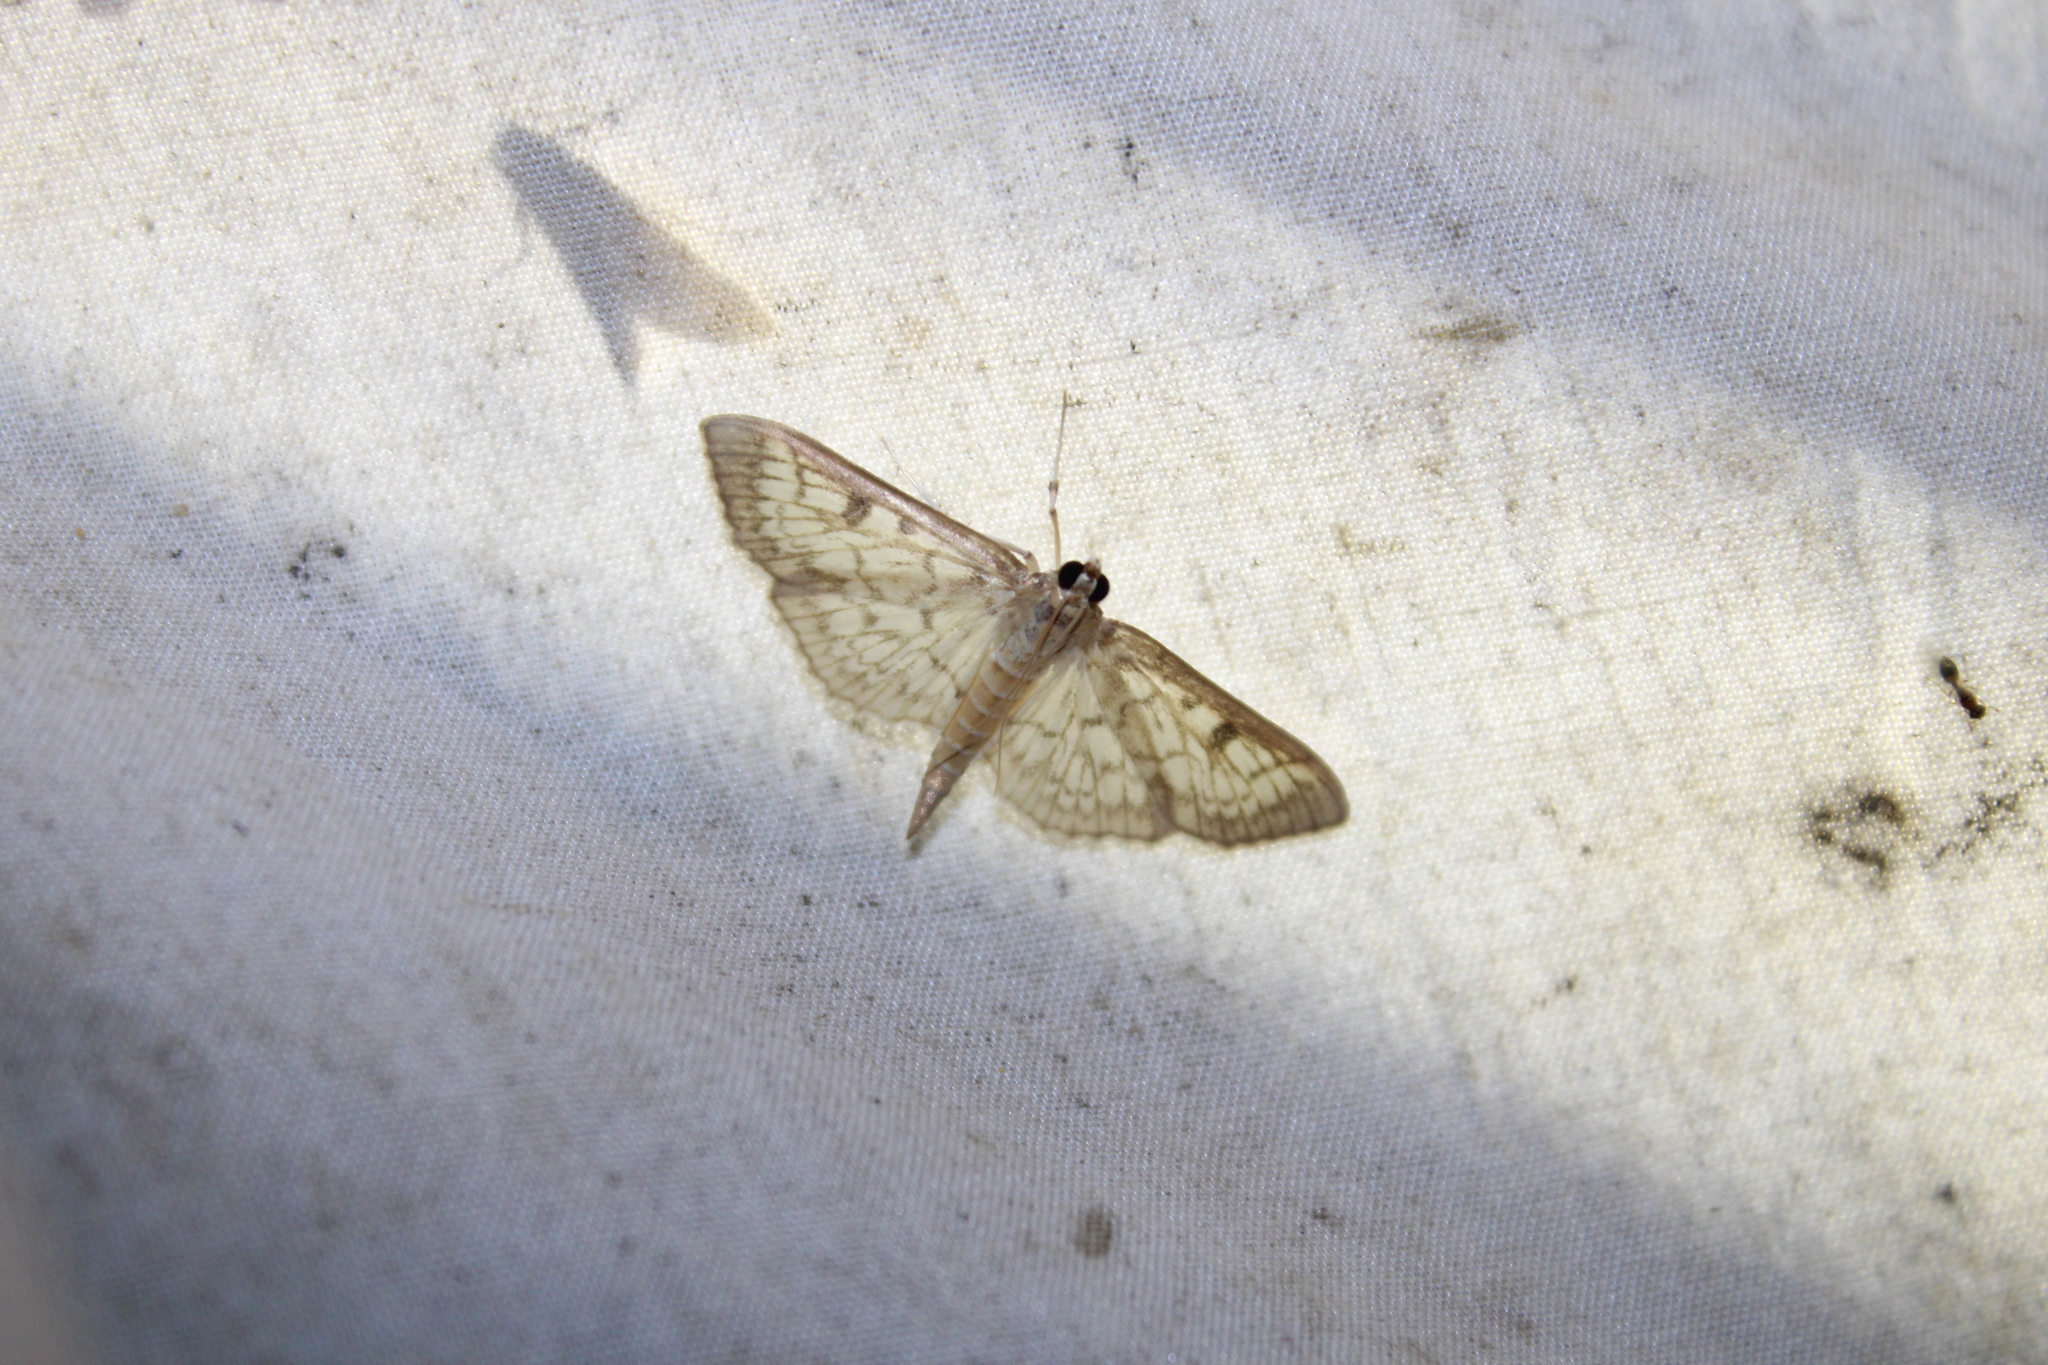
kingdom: Animalia
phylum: Arthropoda
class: Insecta
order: Lepidoptera
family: Crambidae
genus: Herpetogramma
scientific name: Herpetogramma thestealis
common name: Zigzag herpetogramma moth
